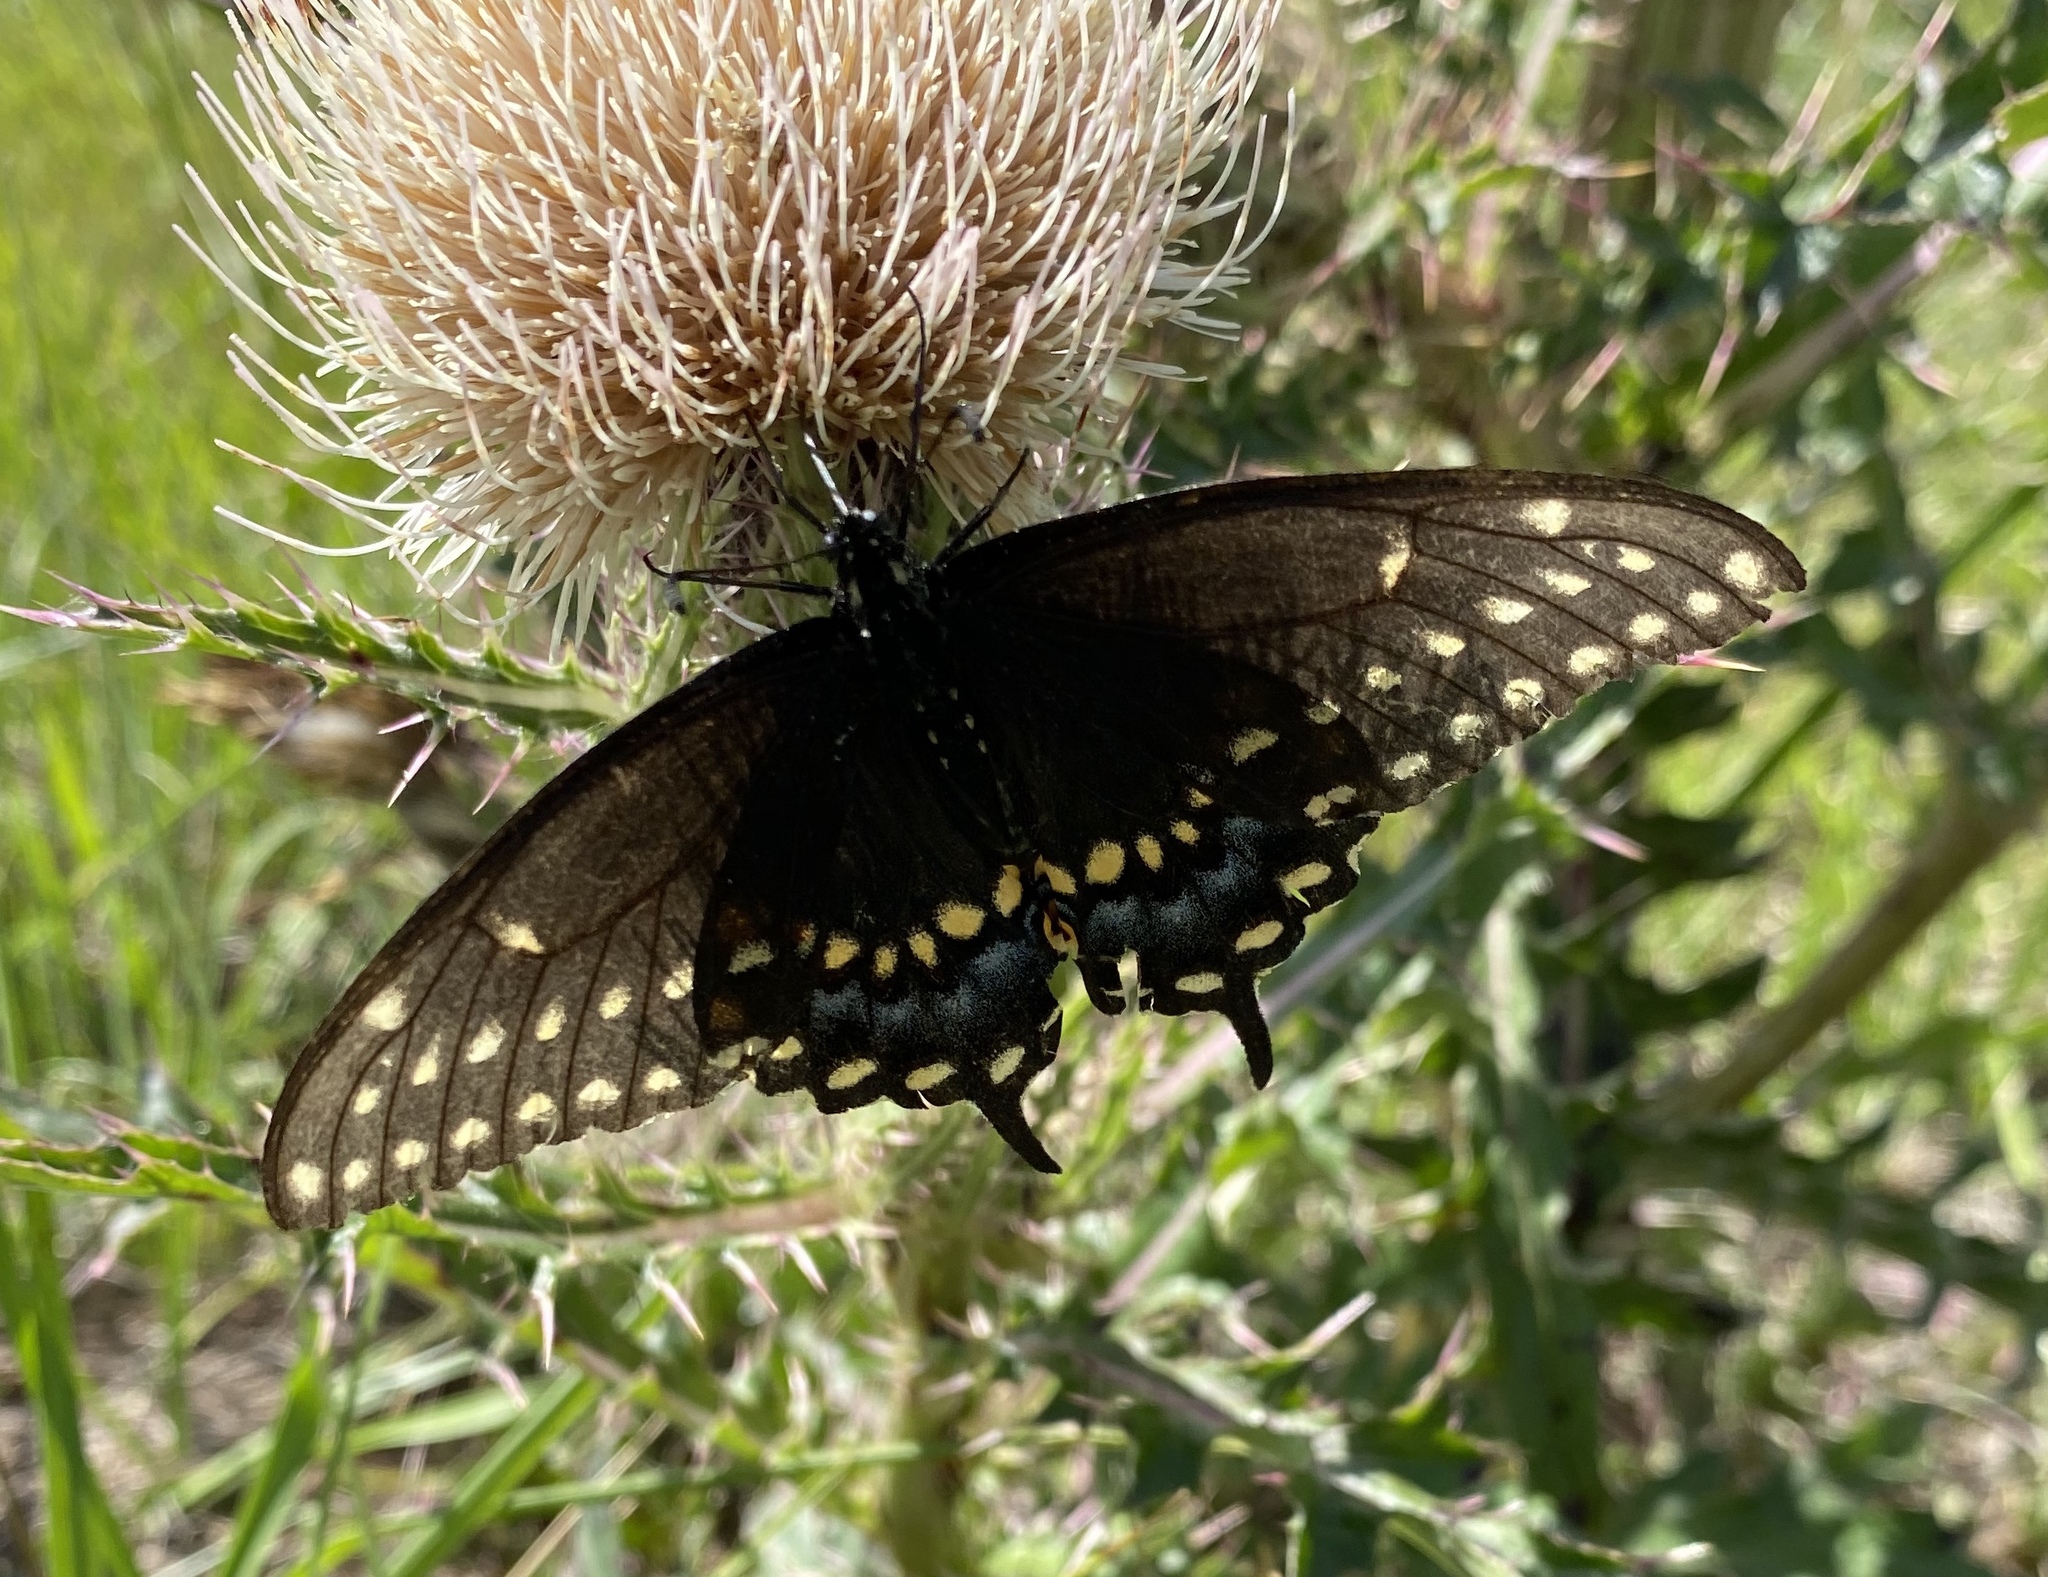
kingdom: Animalia
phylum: Arthropoda
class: Insecta
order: Lepidoptera
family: Papilionidae
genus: Papilio
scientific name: Papilio polyxenes
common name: Black swallowtail
